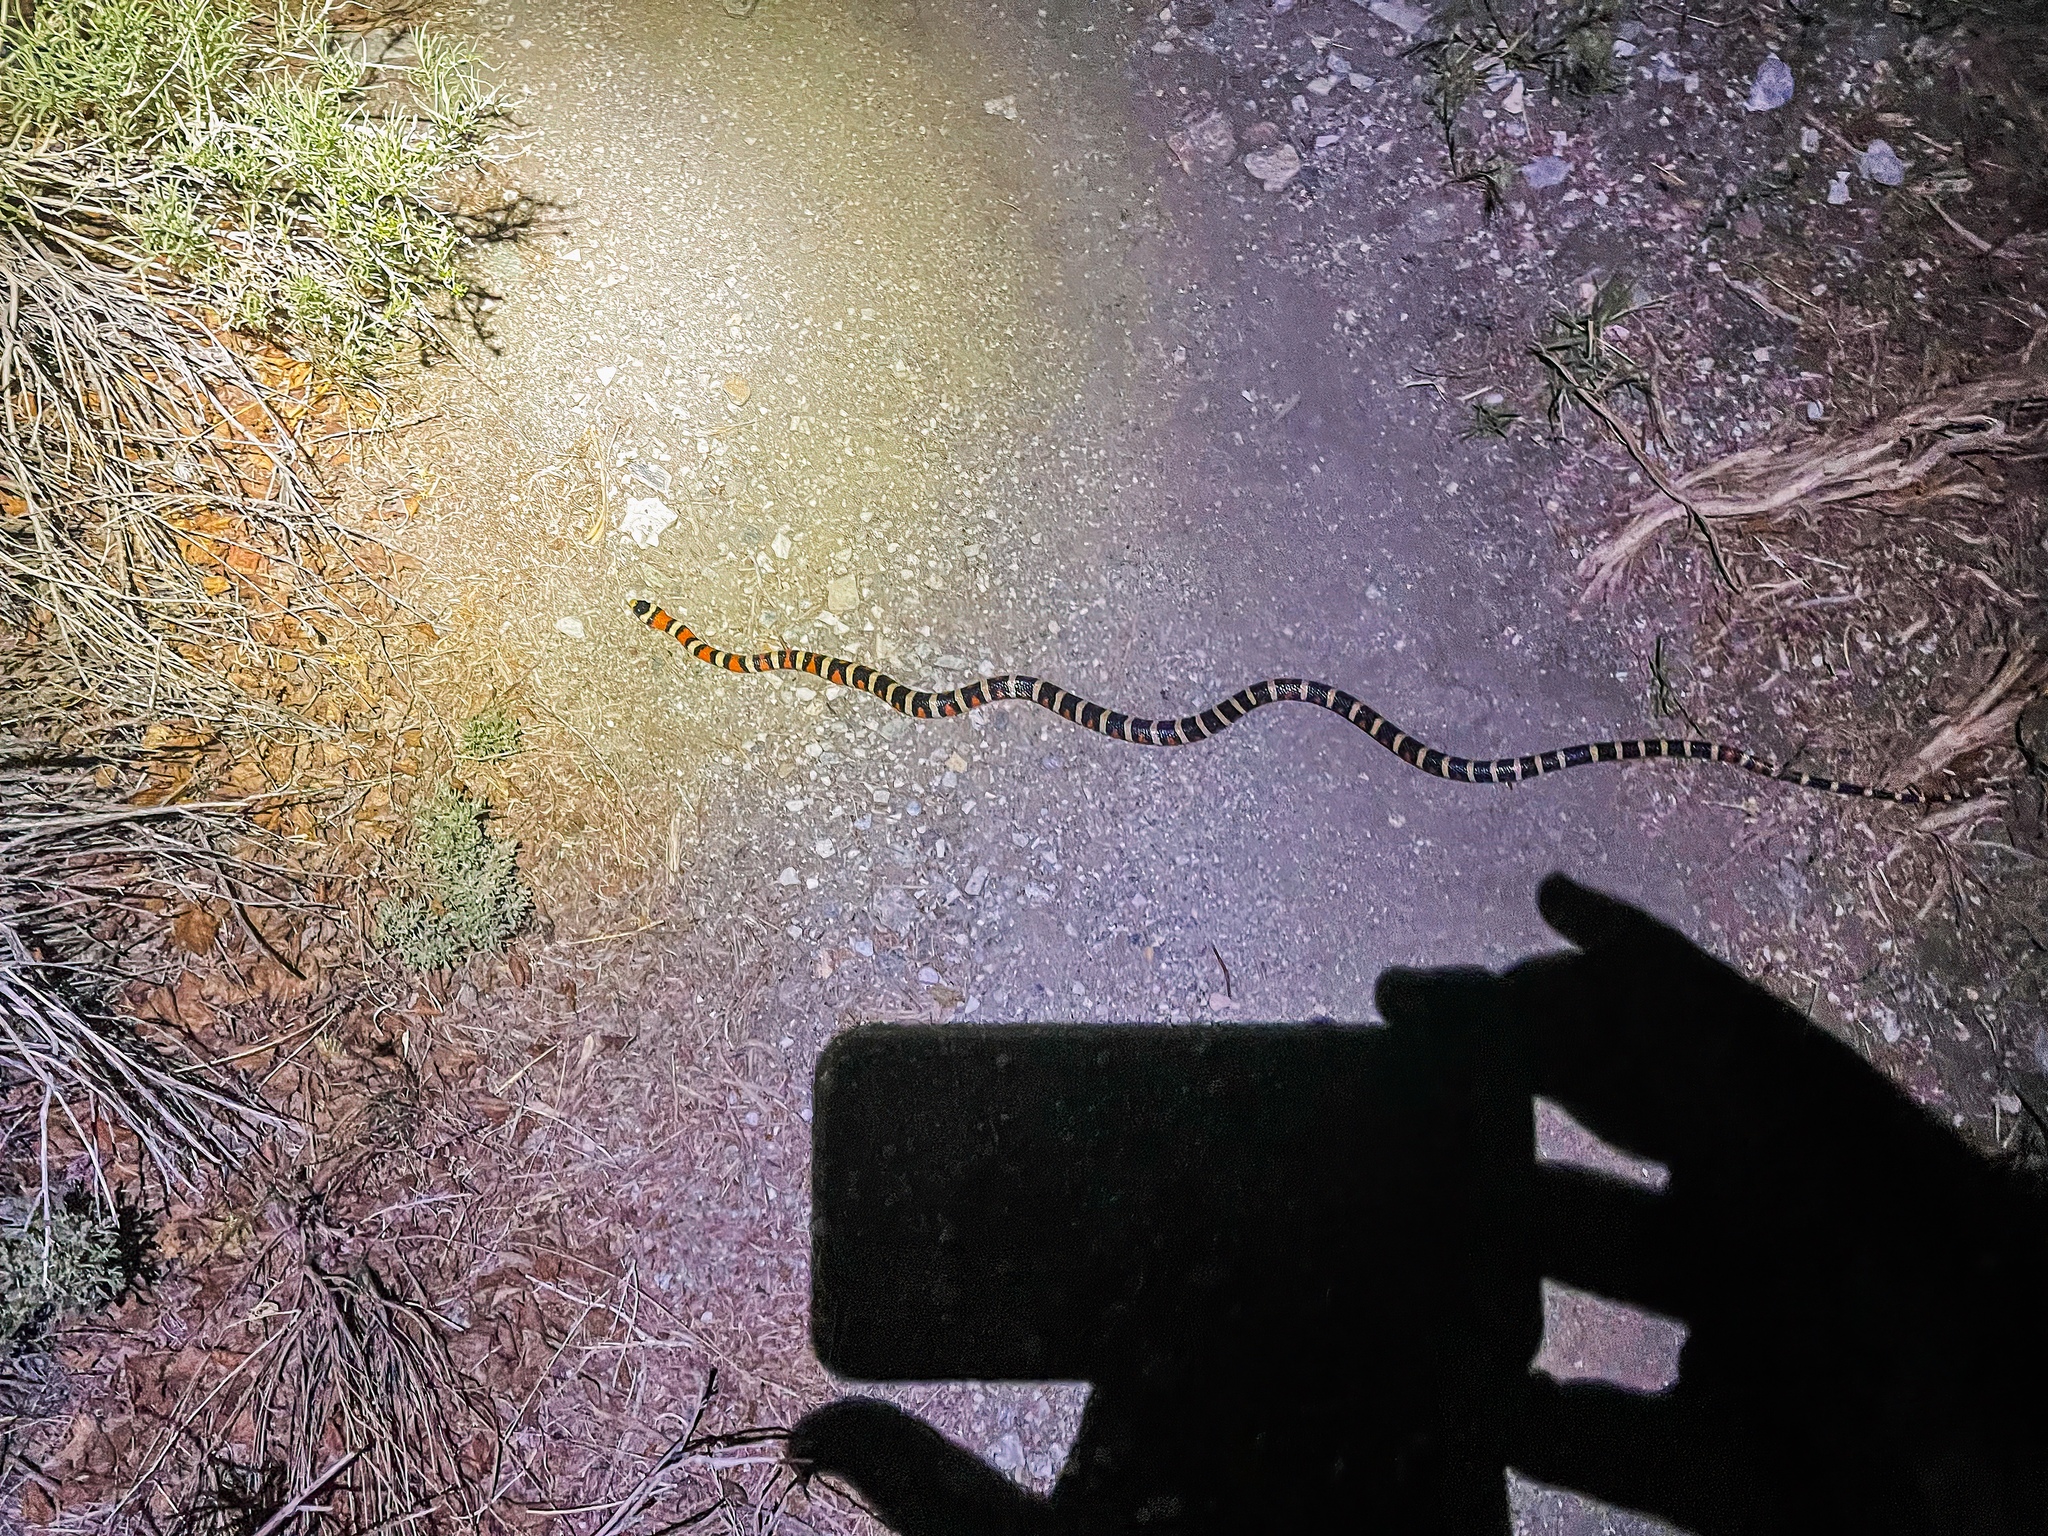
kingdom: Animalia
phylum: Chordata
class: Squamata
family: Colubridae
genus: Lampropeltis
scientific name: Lampropeltis pyromelana
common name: Sonoran mountain kingsnake
